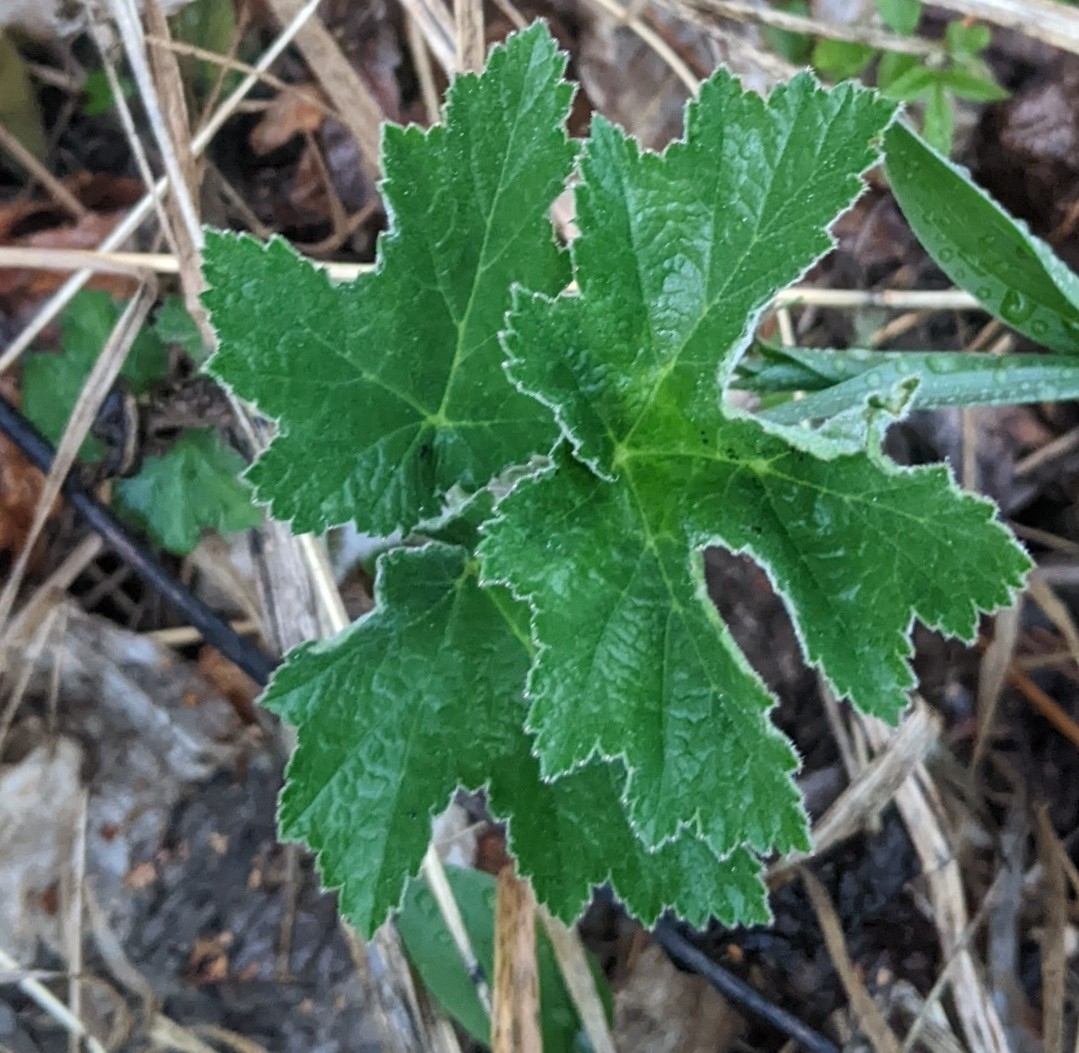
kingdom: Plantae
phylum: Tracheophyta
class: Magnoliopsida
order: Apiales
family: Apiaceae
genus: Heracleum
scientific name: Heracleum maximum
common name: American cow parsnip
